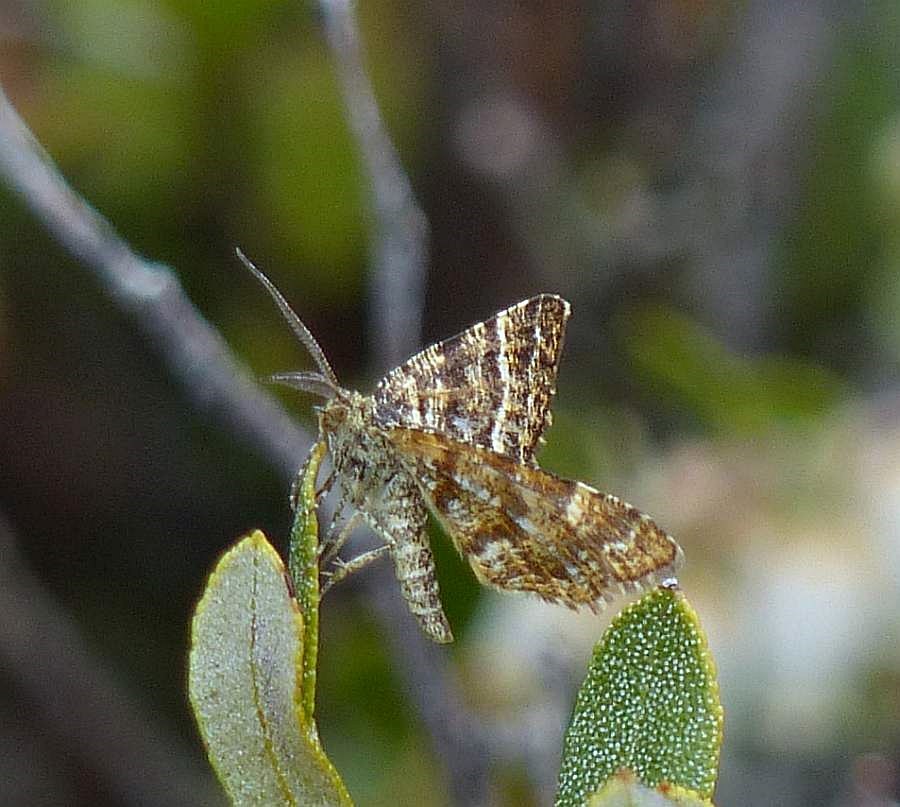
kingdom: Animalia
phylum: Arthropoda
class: Insecta
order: Lepidoptera
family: Geometridae
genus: Macaria
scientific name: Macaria truncataria
